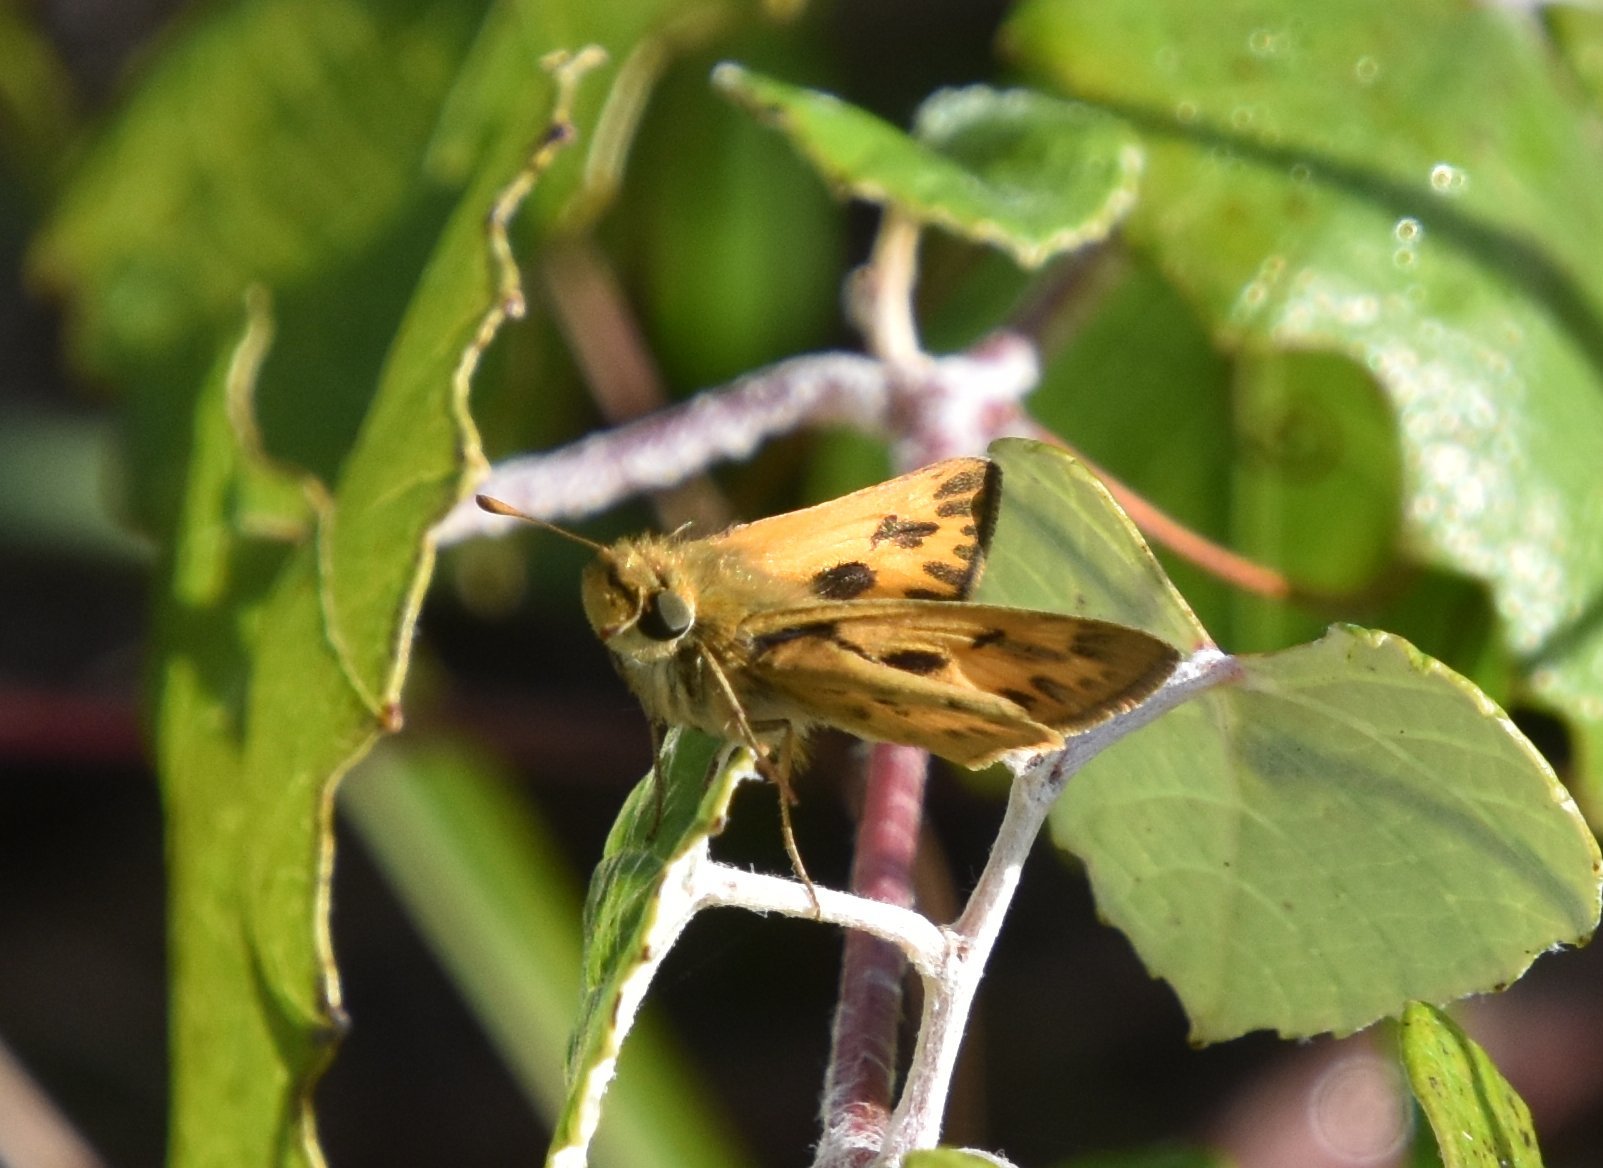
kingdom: Animalia
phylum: Arthropoda
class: Insecta
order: Lepidoptera
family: Hesperiidae
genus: Hylephila
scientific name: Hylephila phyleus
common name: Fiery skipper
